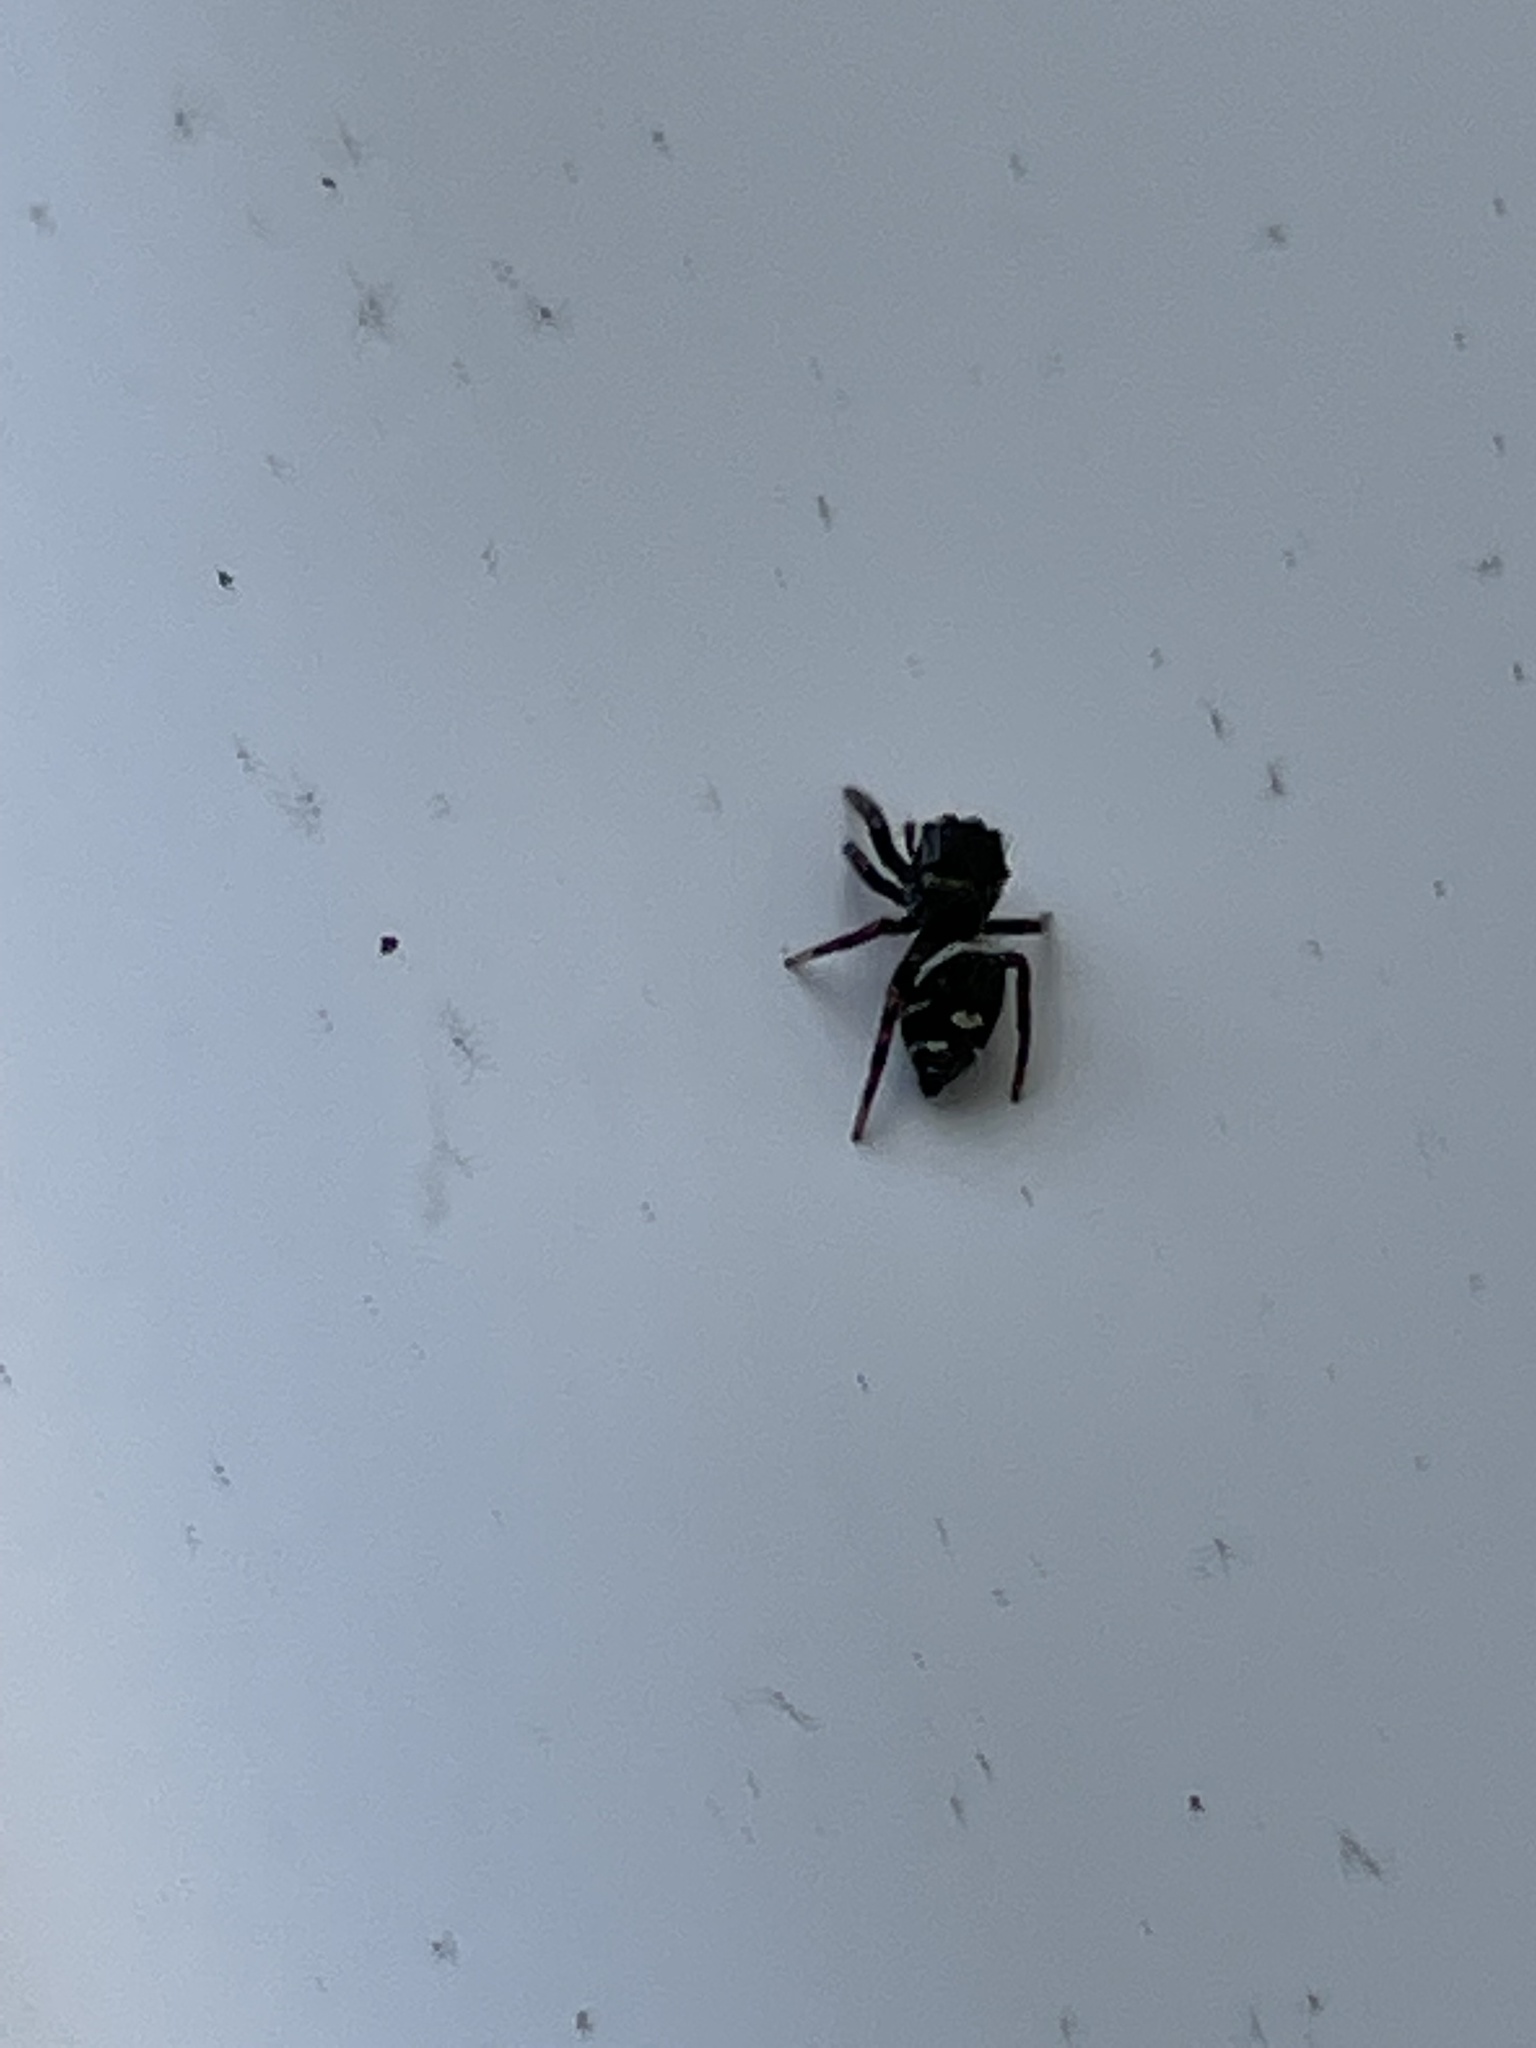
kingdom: Animalia
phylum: Arthropoda
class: Arachnida
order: Araneae
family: Salticidae
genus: Phidippus
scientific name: Phidippus audax
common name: Bold jumper
